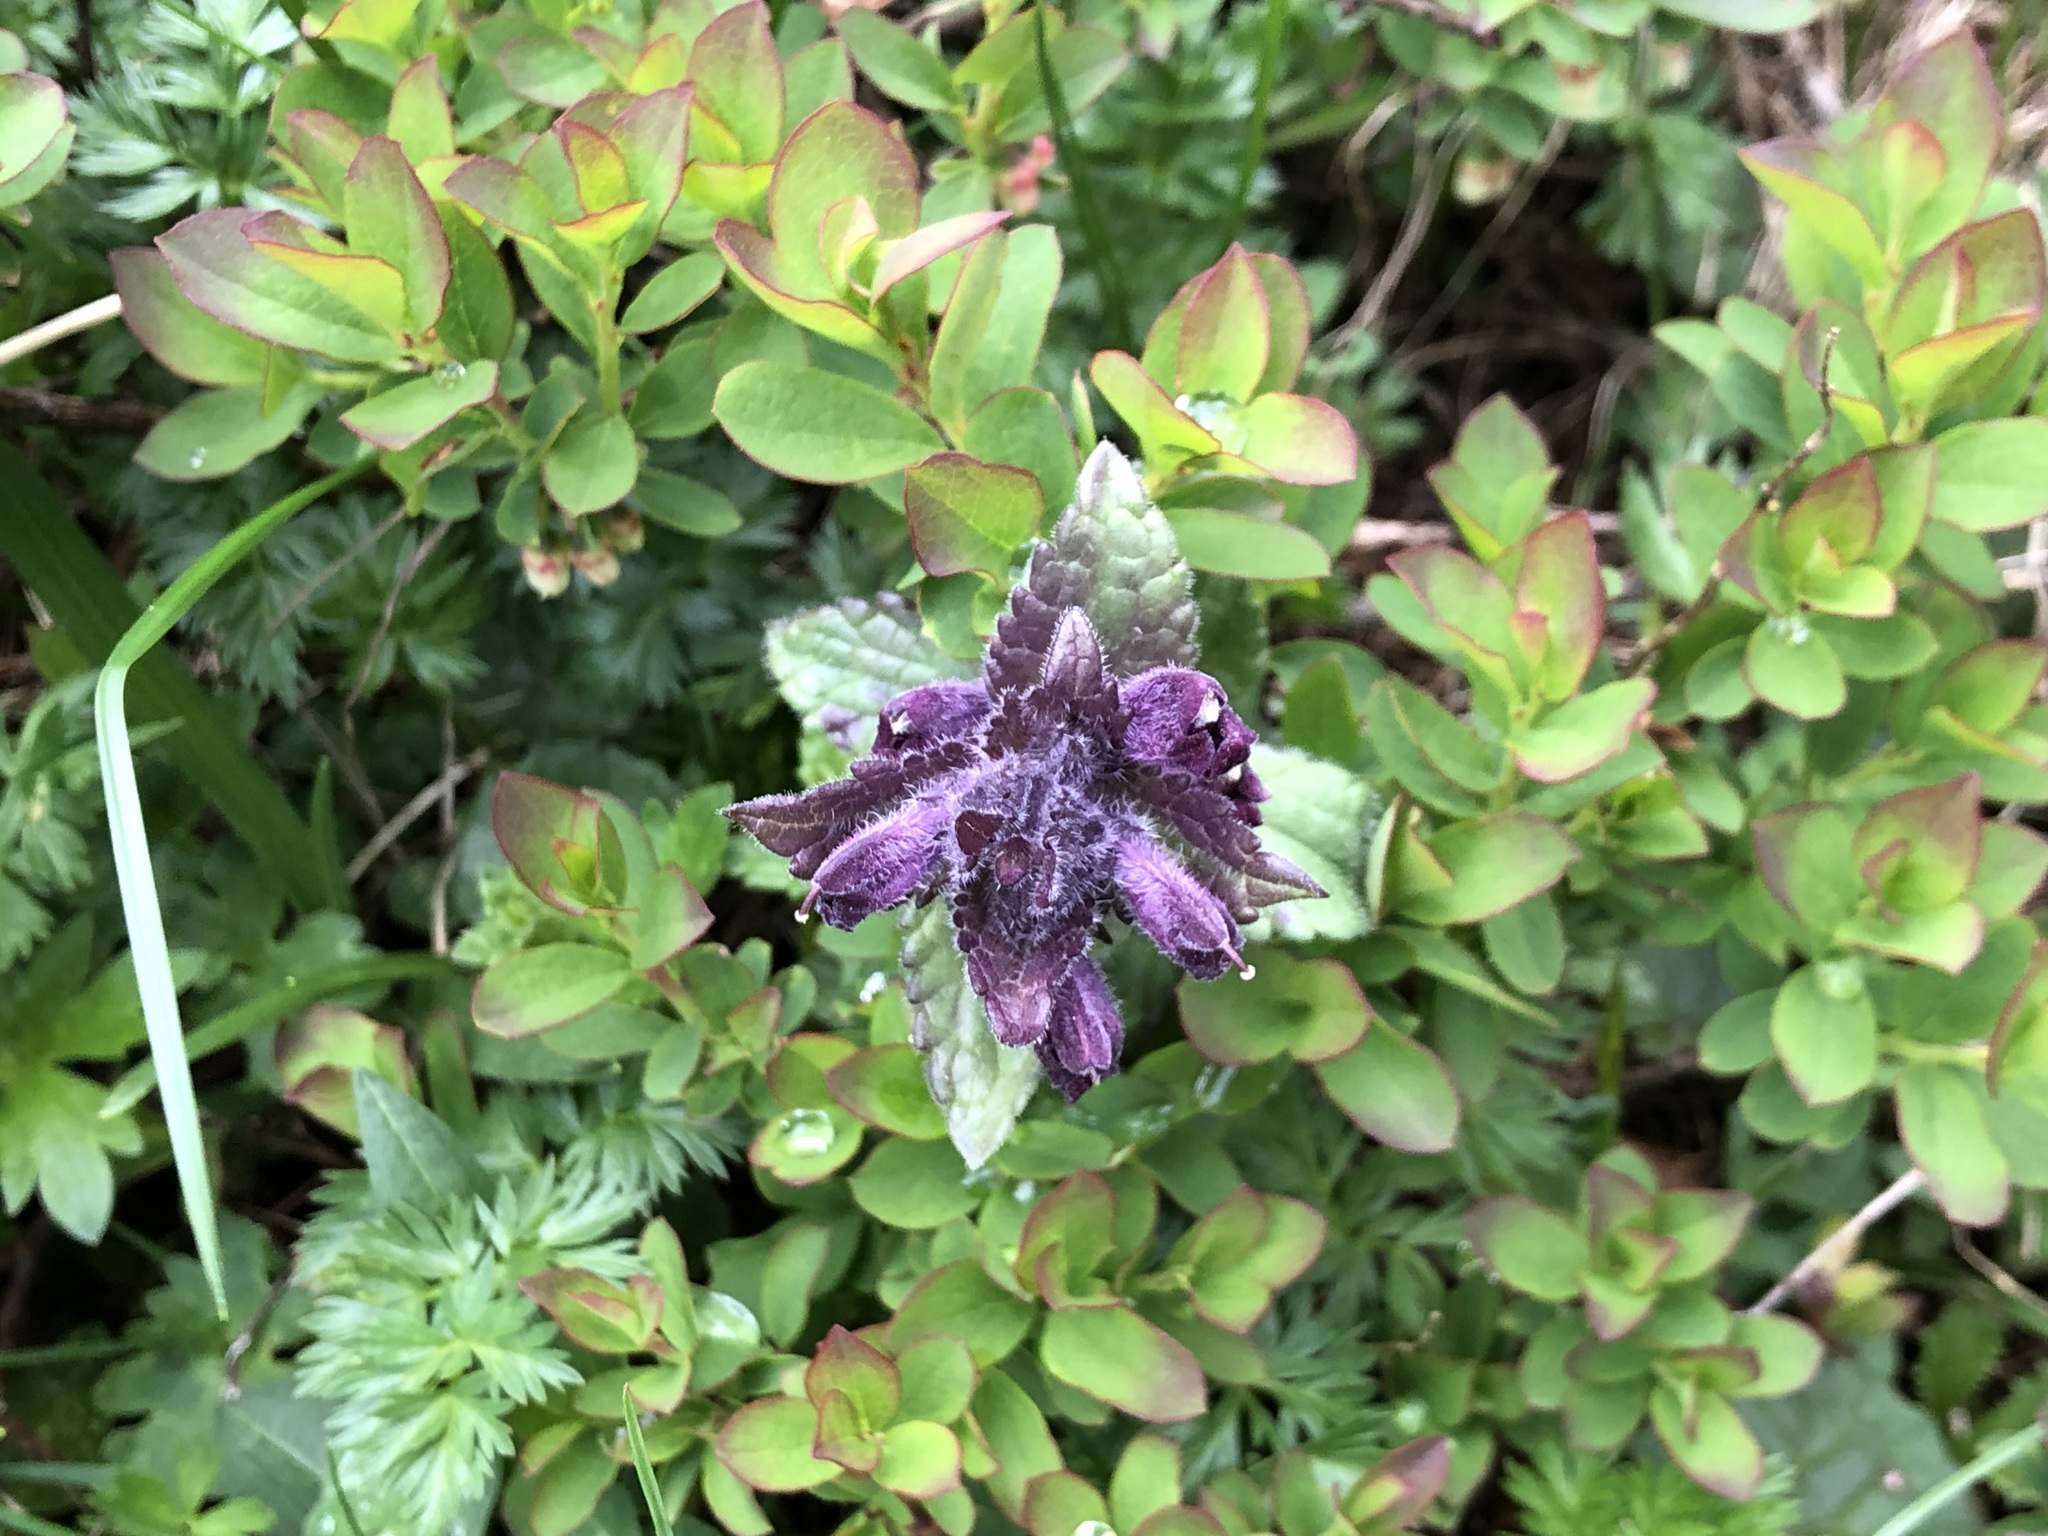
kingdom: Plantae
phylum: Tracheophyta
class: Magnoliopsida
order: Lamiales
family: Orobanchaceae
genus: Bartsia
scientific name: Bartsia alpina
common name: Alpine bartsia
